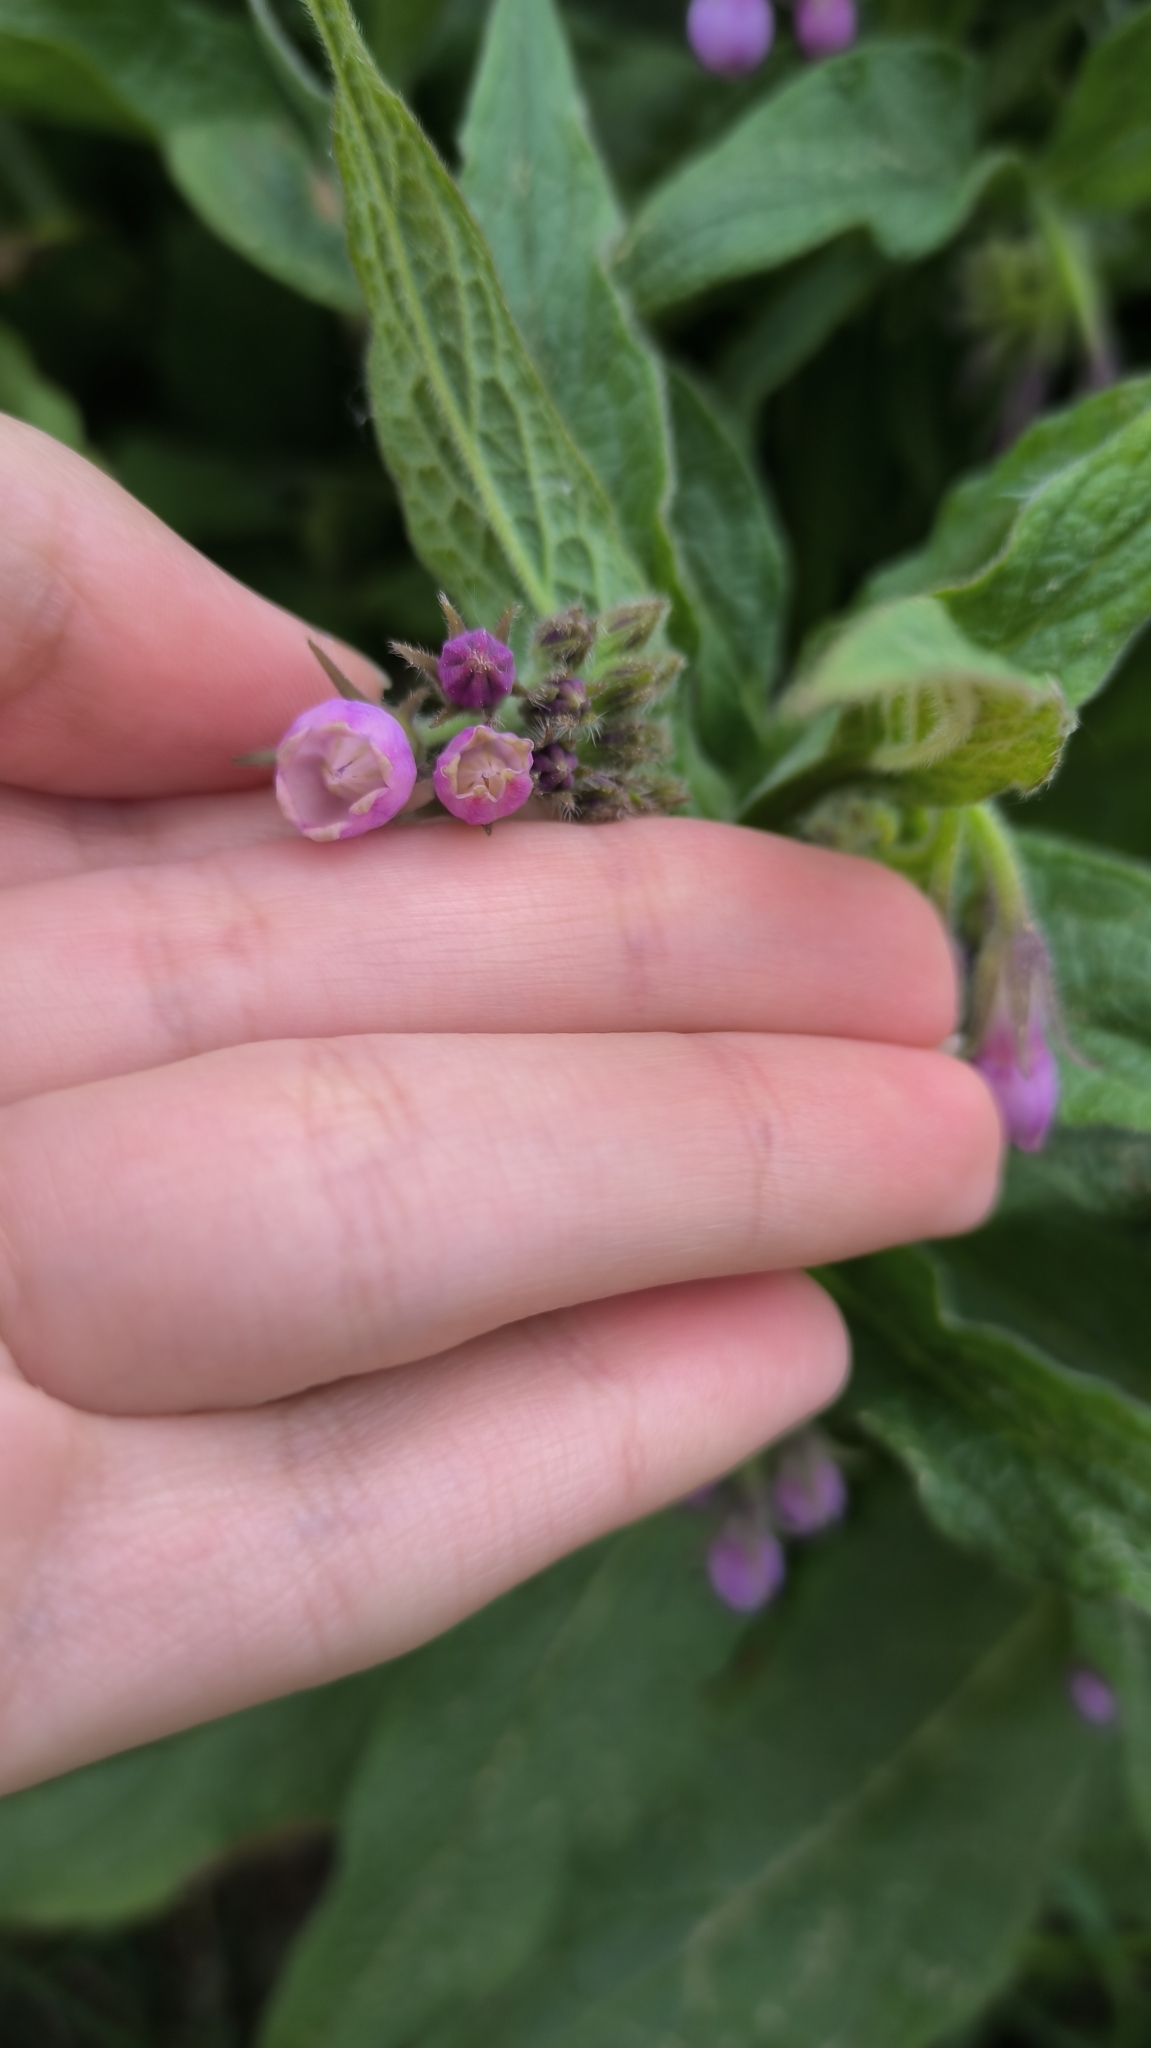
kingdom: Plantae
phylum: Tracheophyta
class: Magnoliopsida
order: Boraginales
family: Boraginaceae
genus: Symphytum
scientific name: Symphytum officinale
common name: Common comfrey
